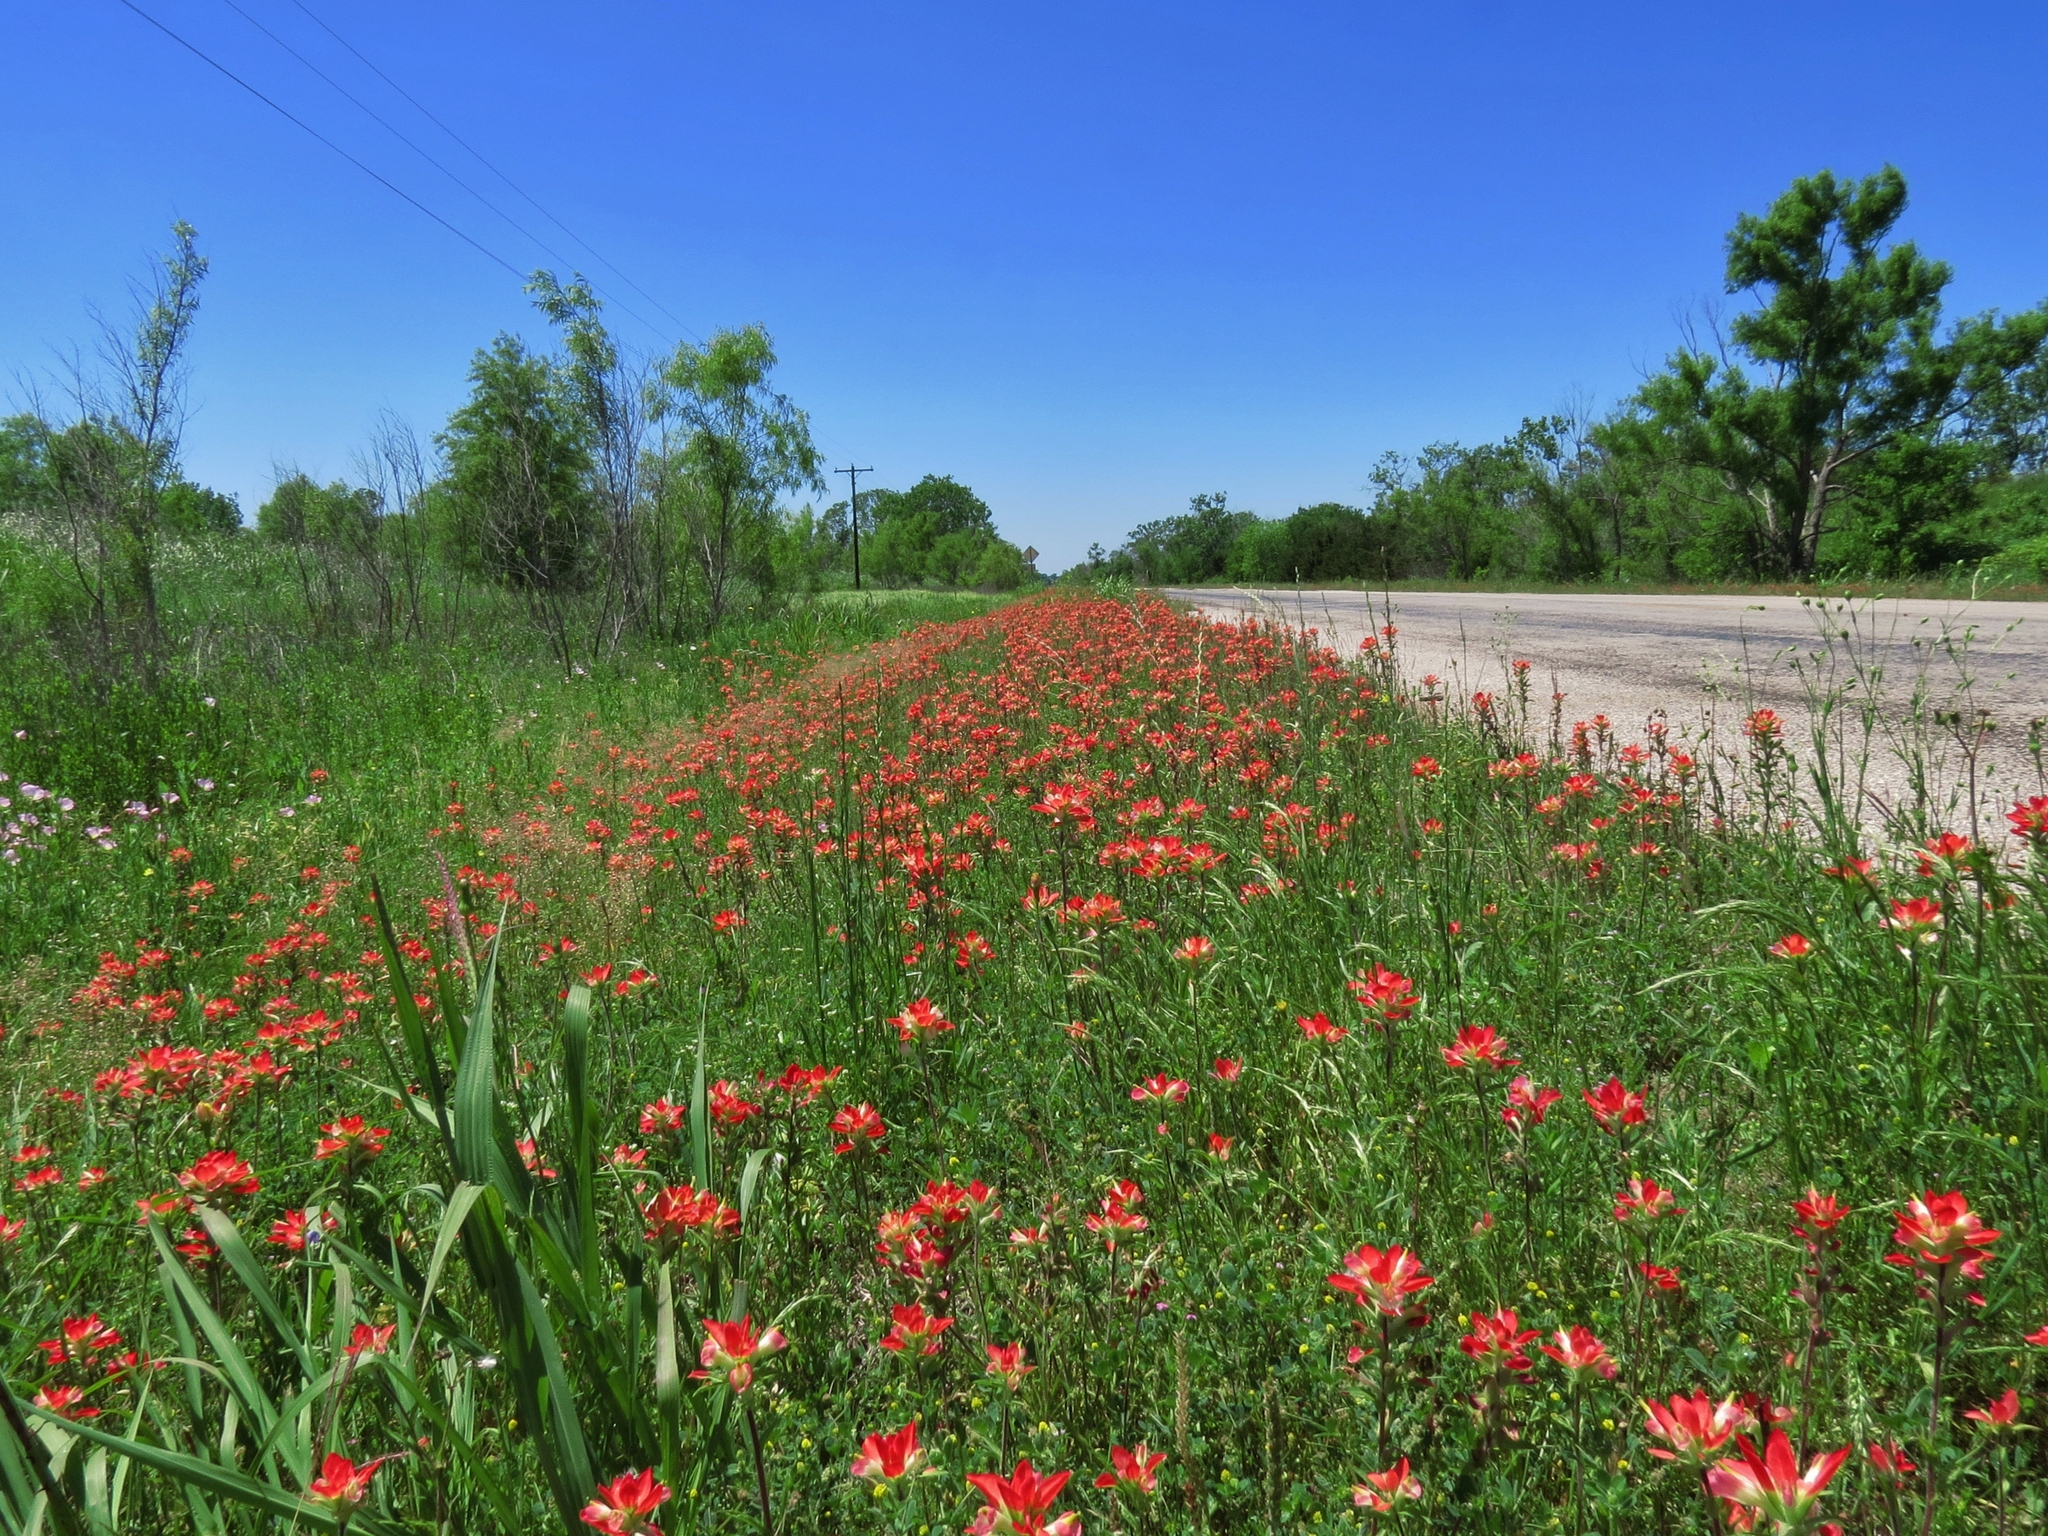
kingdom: Plantae
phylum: Tracheophyta
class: Magnoliopsida
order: Lamiales
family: Orobanchaceae
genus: Castilleja
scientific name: Castilleja indivisa
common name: Texas paintbrush
